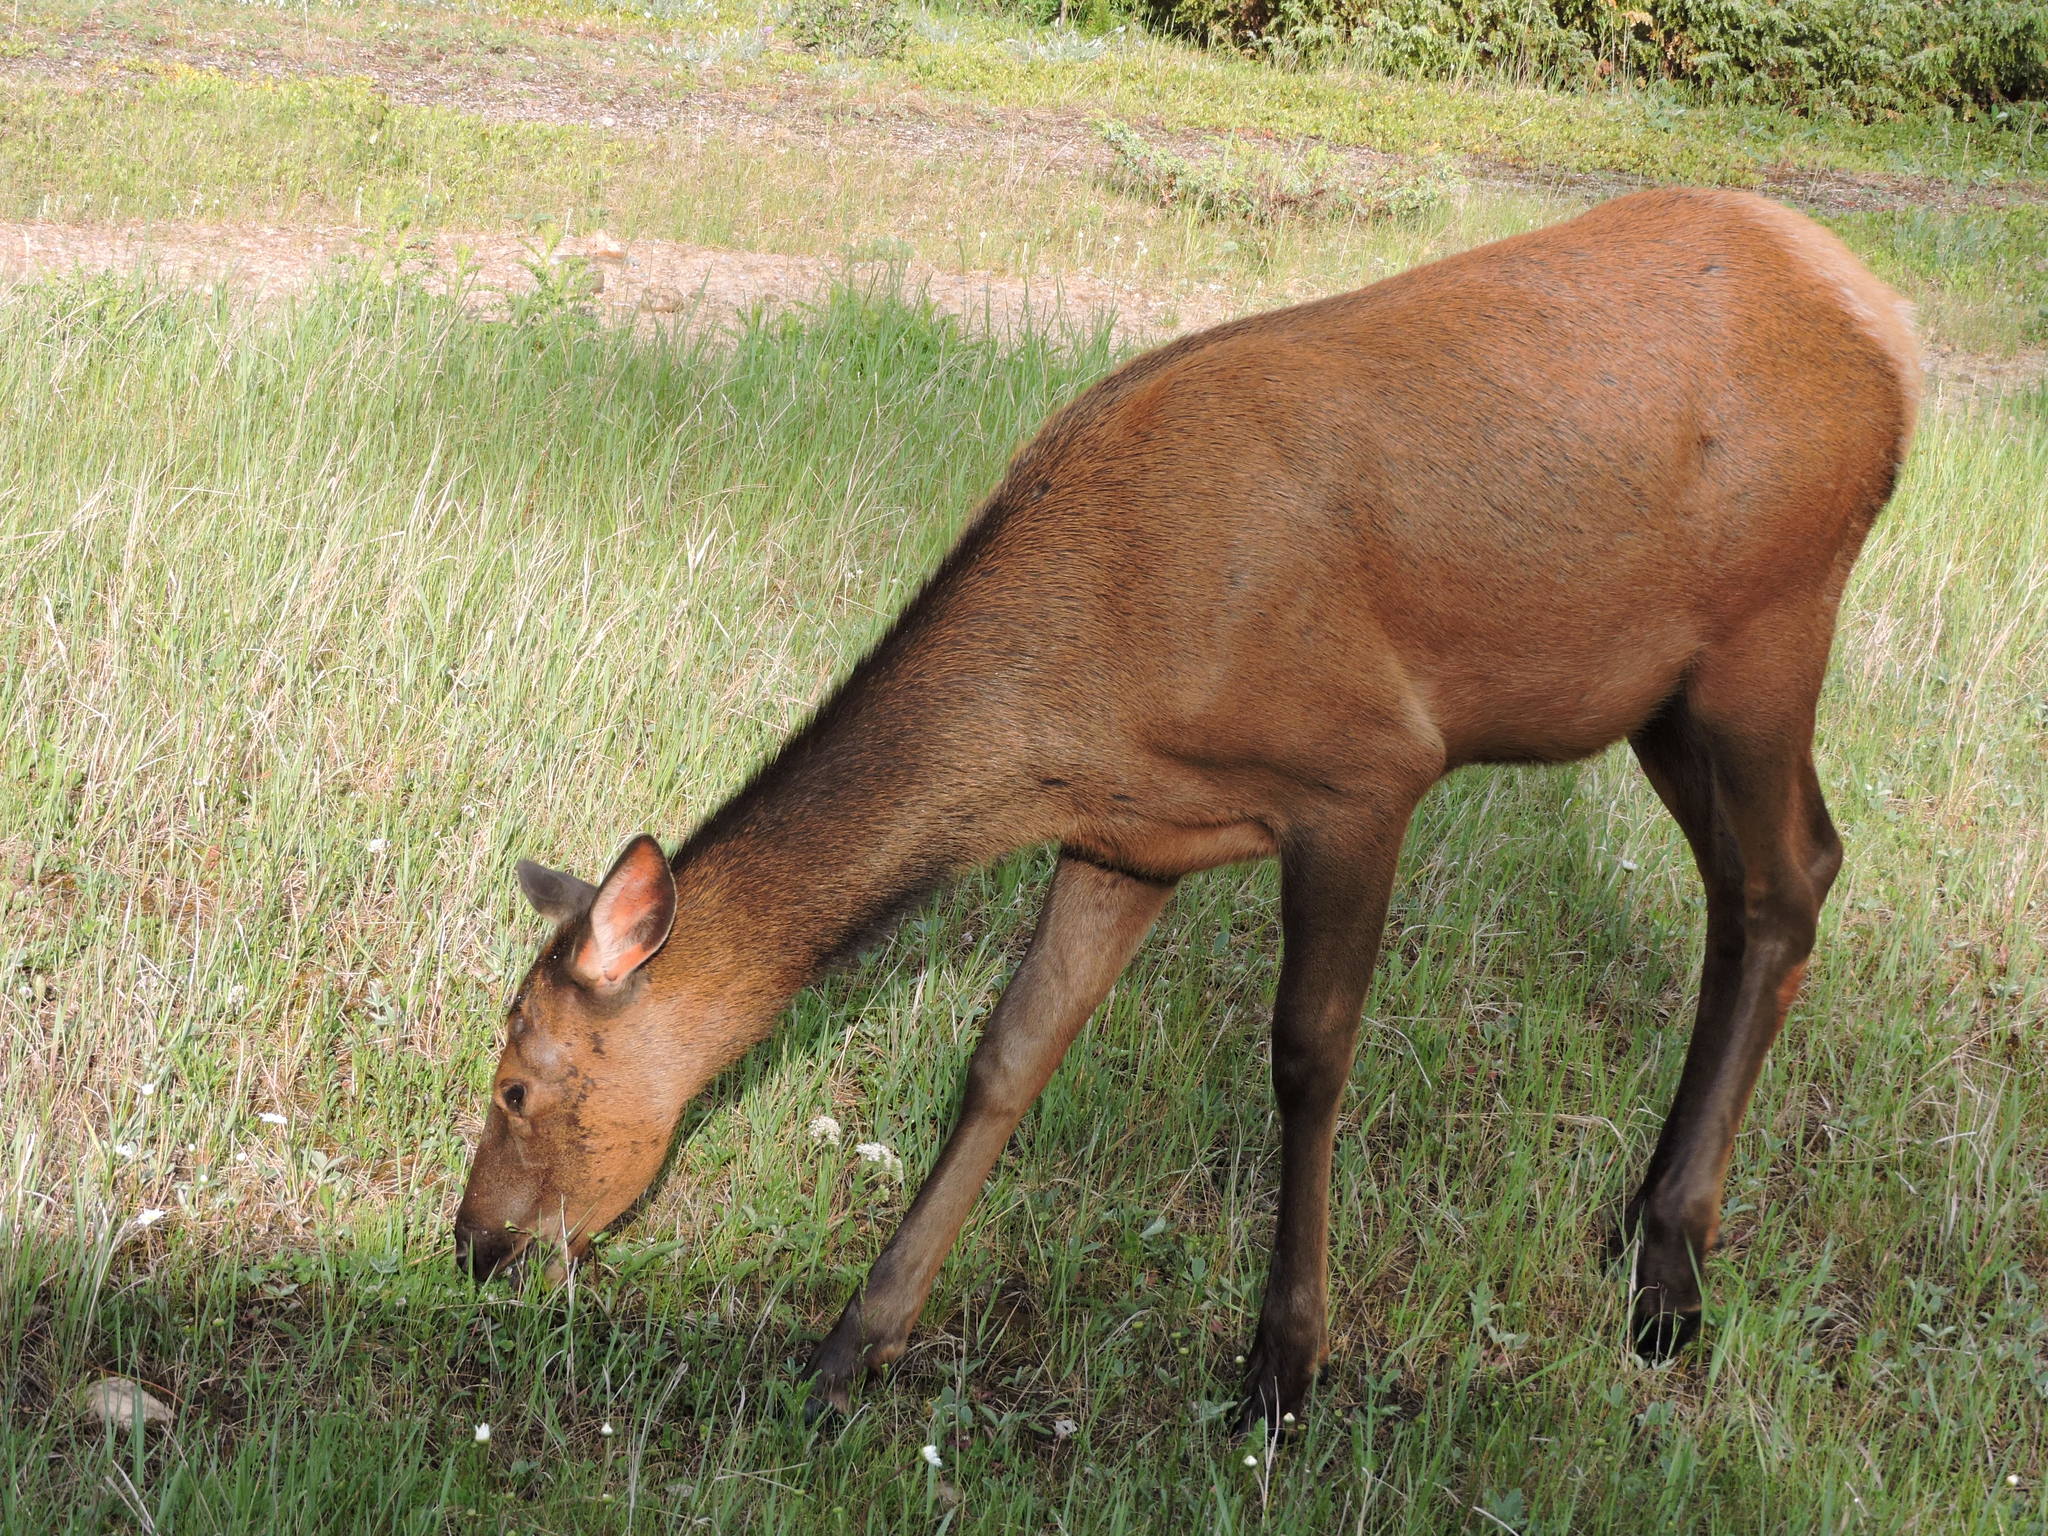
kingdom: Animalia
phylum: Chordata
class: Mammalia
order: Artiodactyla
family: Cervidae
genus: Cervus
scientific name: Cervus elaphus
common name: Red deer
